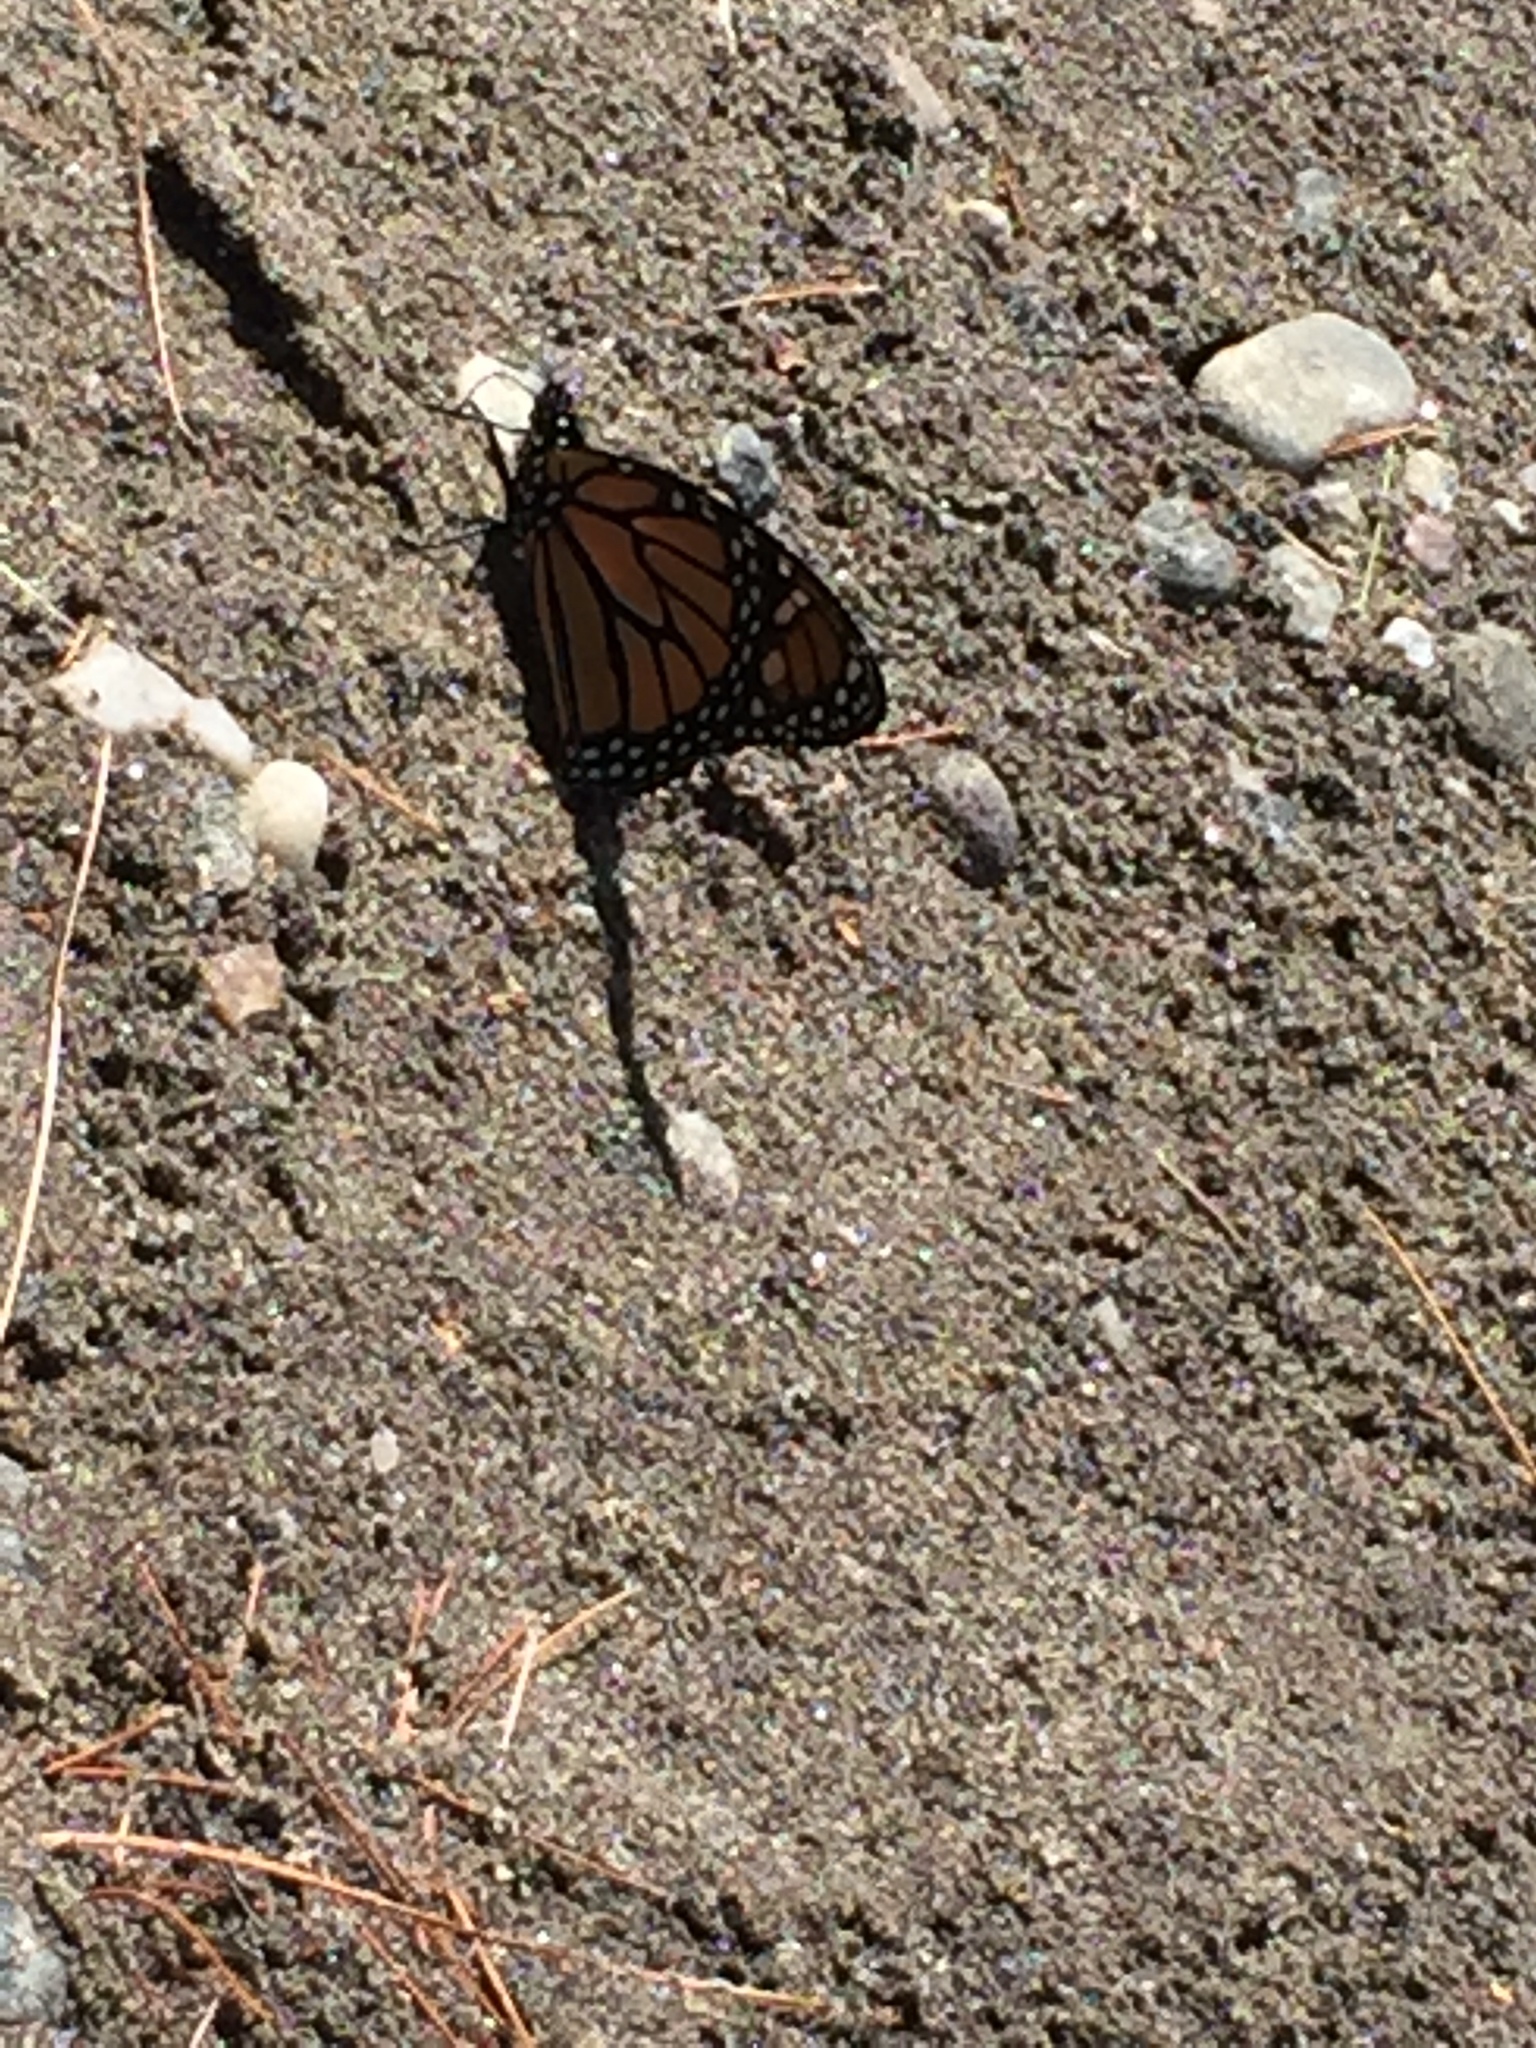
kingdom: Animalia
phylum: Arthropoda
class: Insecta
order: Lepidoptera
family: Nymphalidae
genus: Danaus
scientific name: Danaus plexippus
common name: Monarch
